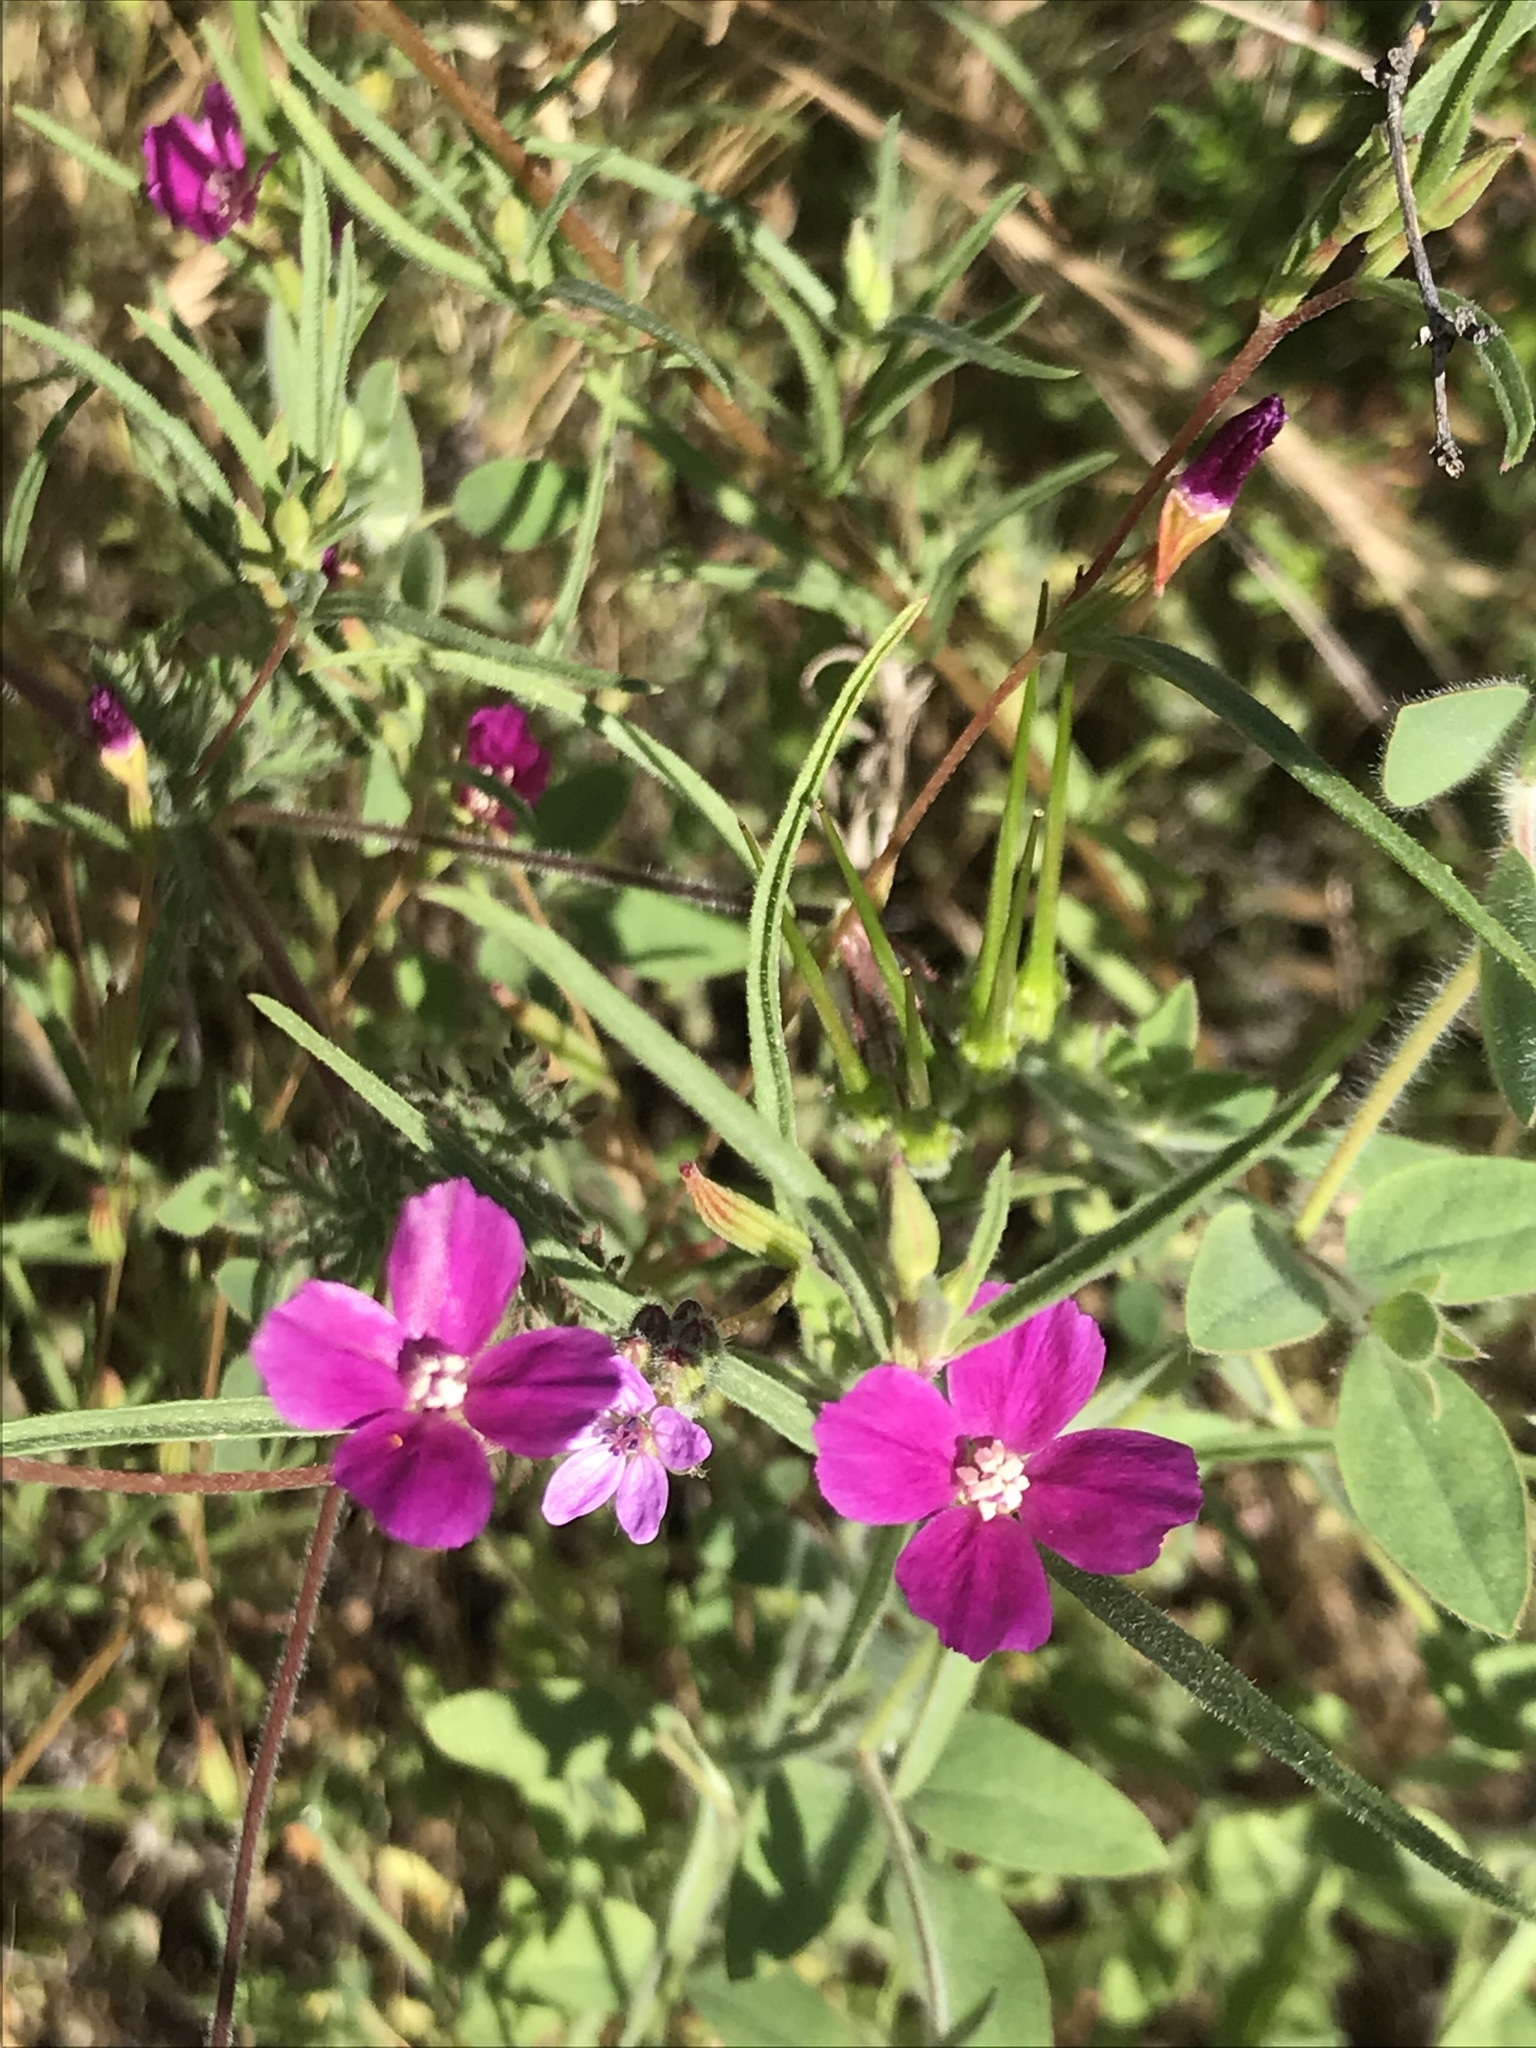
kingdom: Plantae
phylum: Tracheophyta
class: Magnoliopsida
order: Myrtales
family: Onagraceae
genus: Clarkia
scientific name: Clarkia purpurea
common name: Purple clarkia
